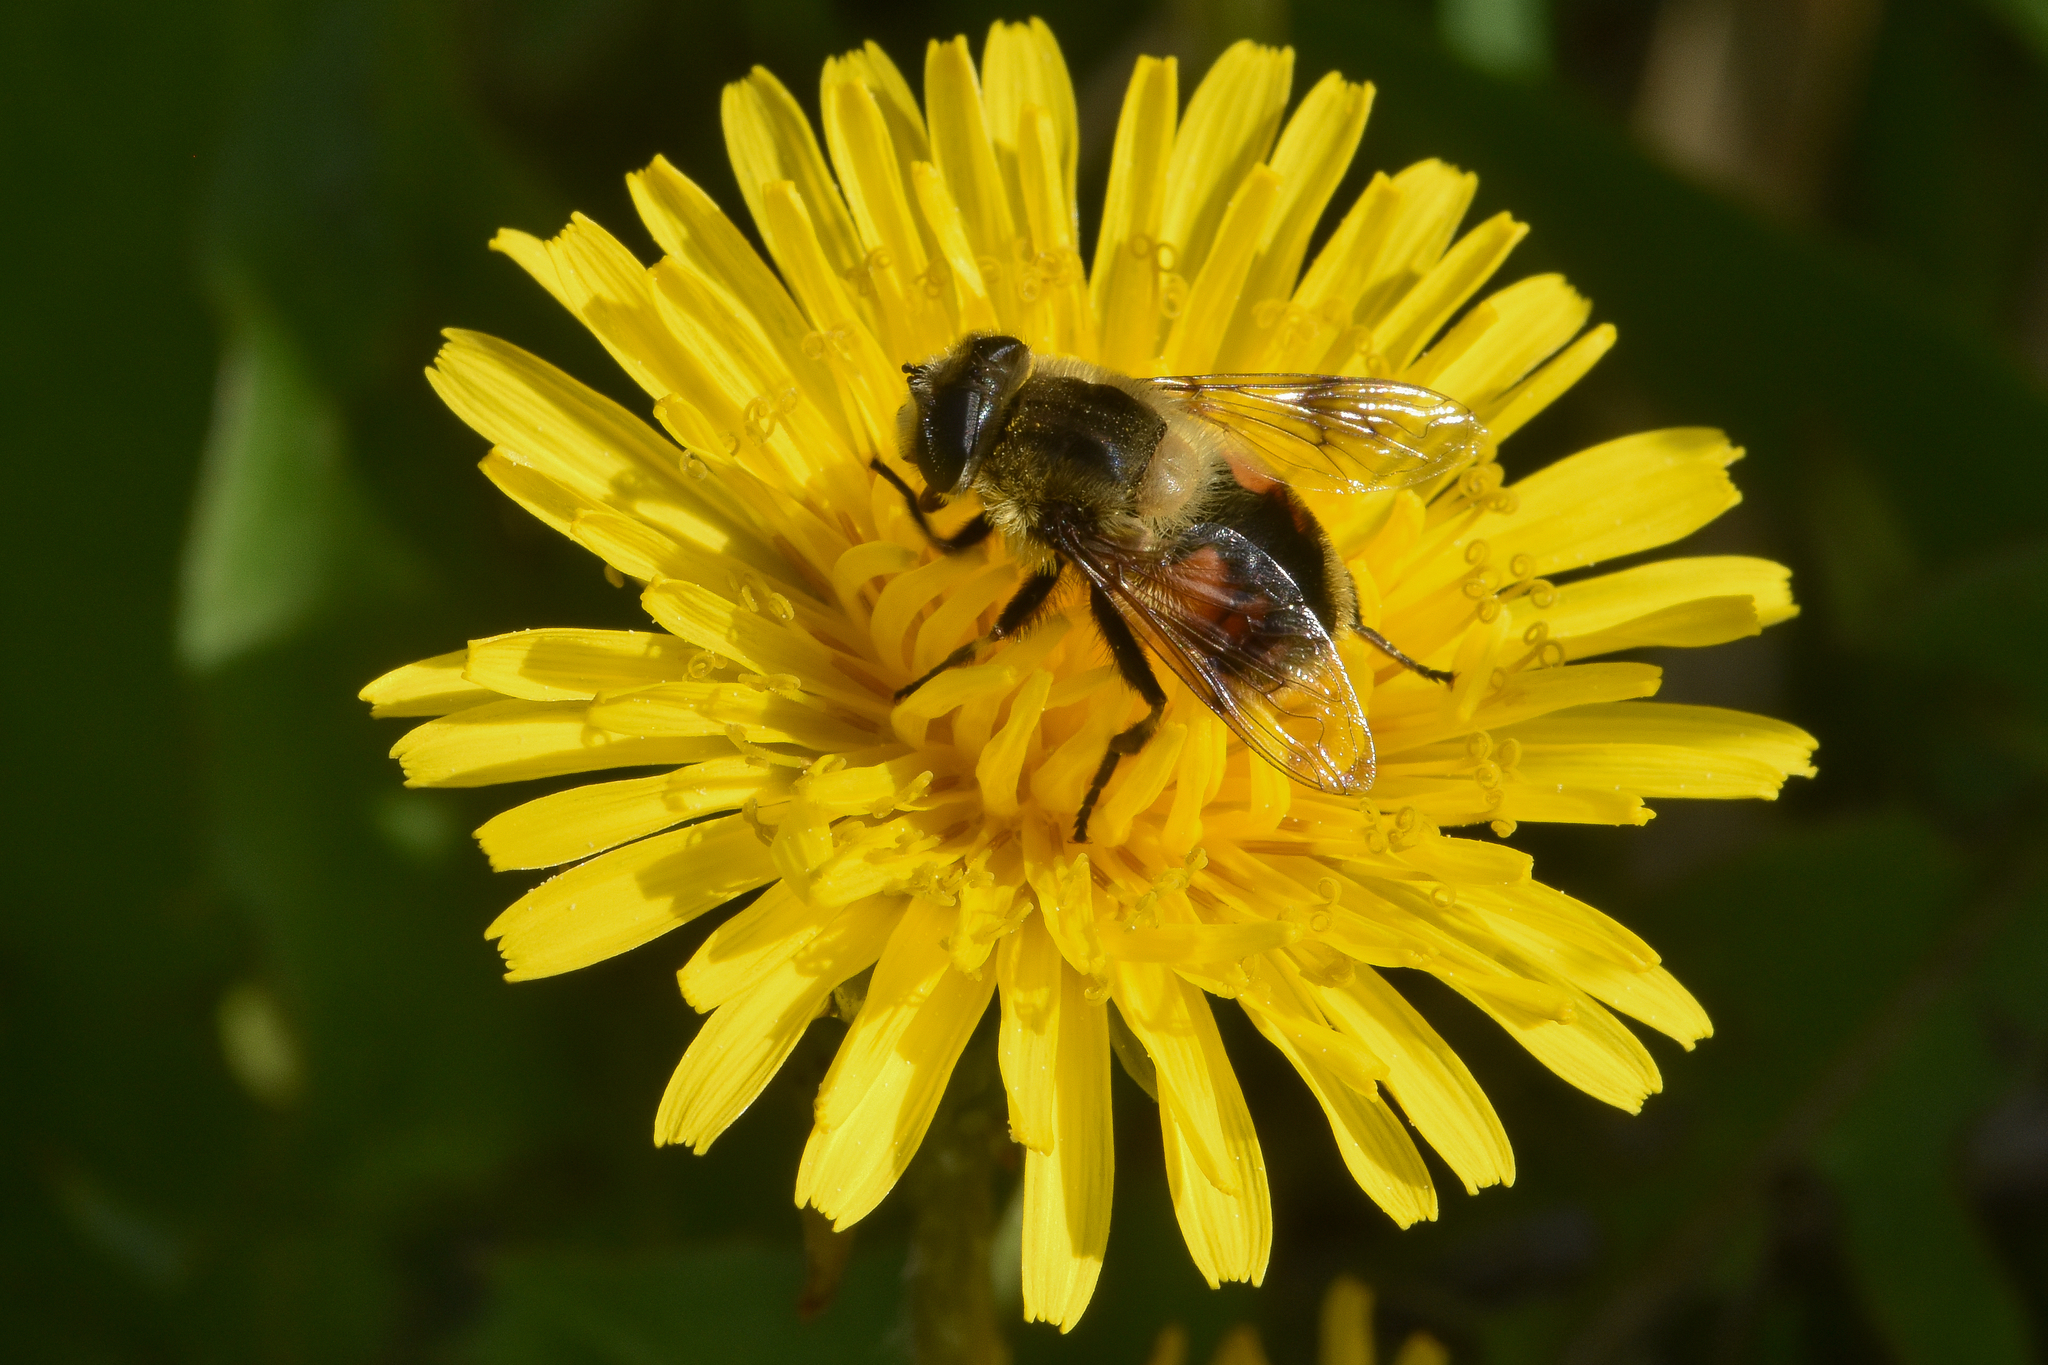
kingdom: Animalia
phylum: Arthropoda
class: Insecta
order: Diptera
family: Syrphidae
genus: Eristalis
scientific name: Eristalis anthophorina
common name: Orange-spotted drone fly
